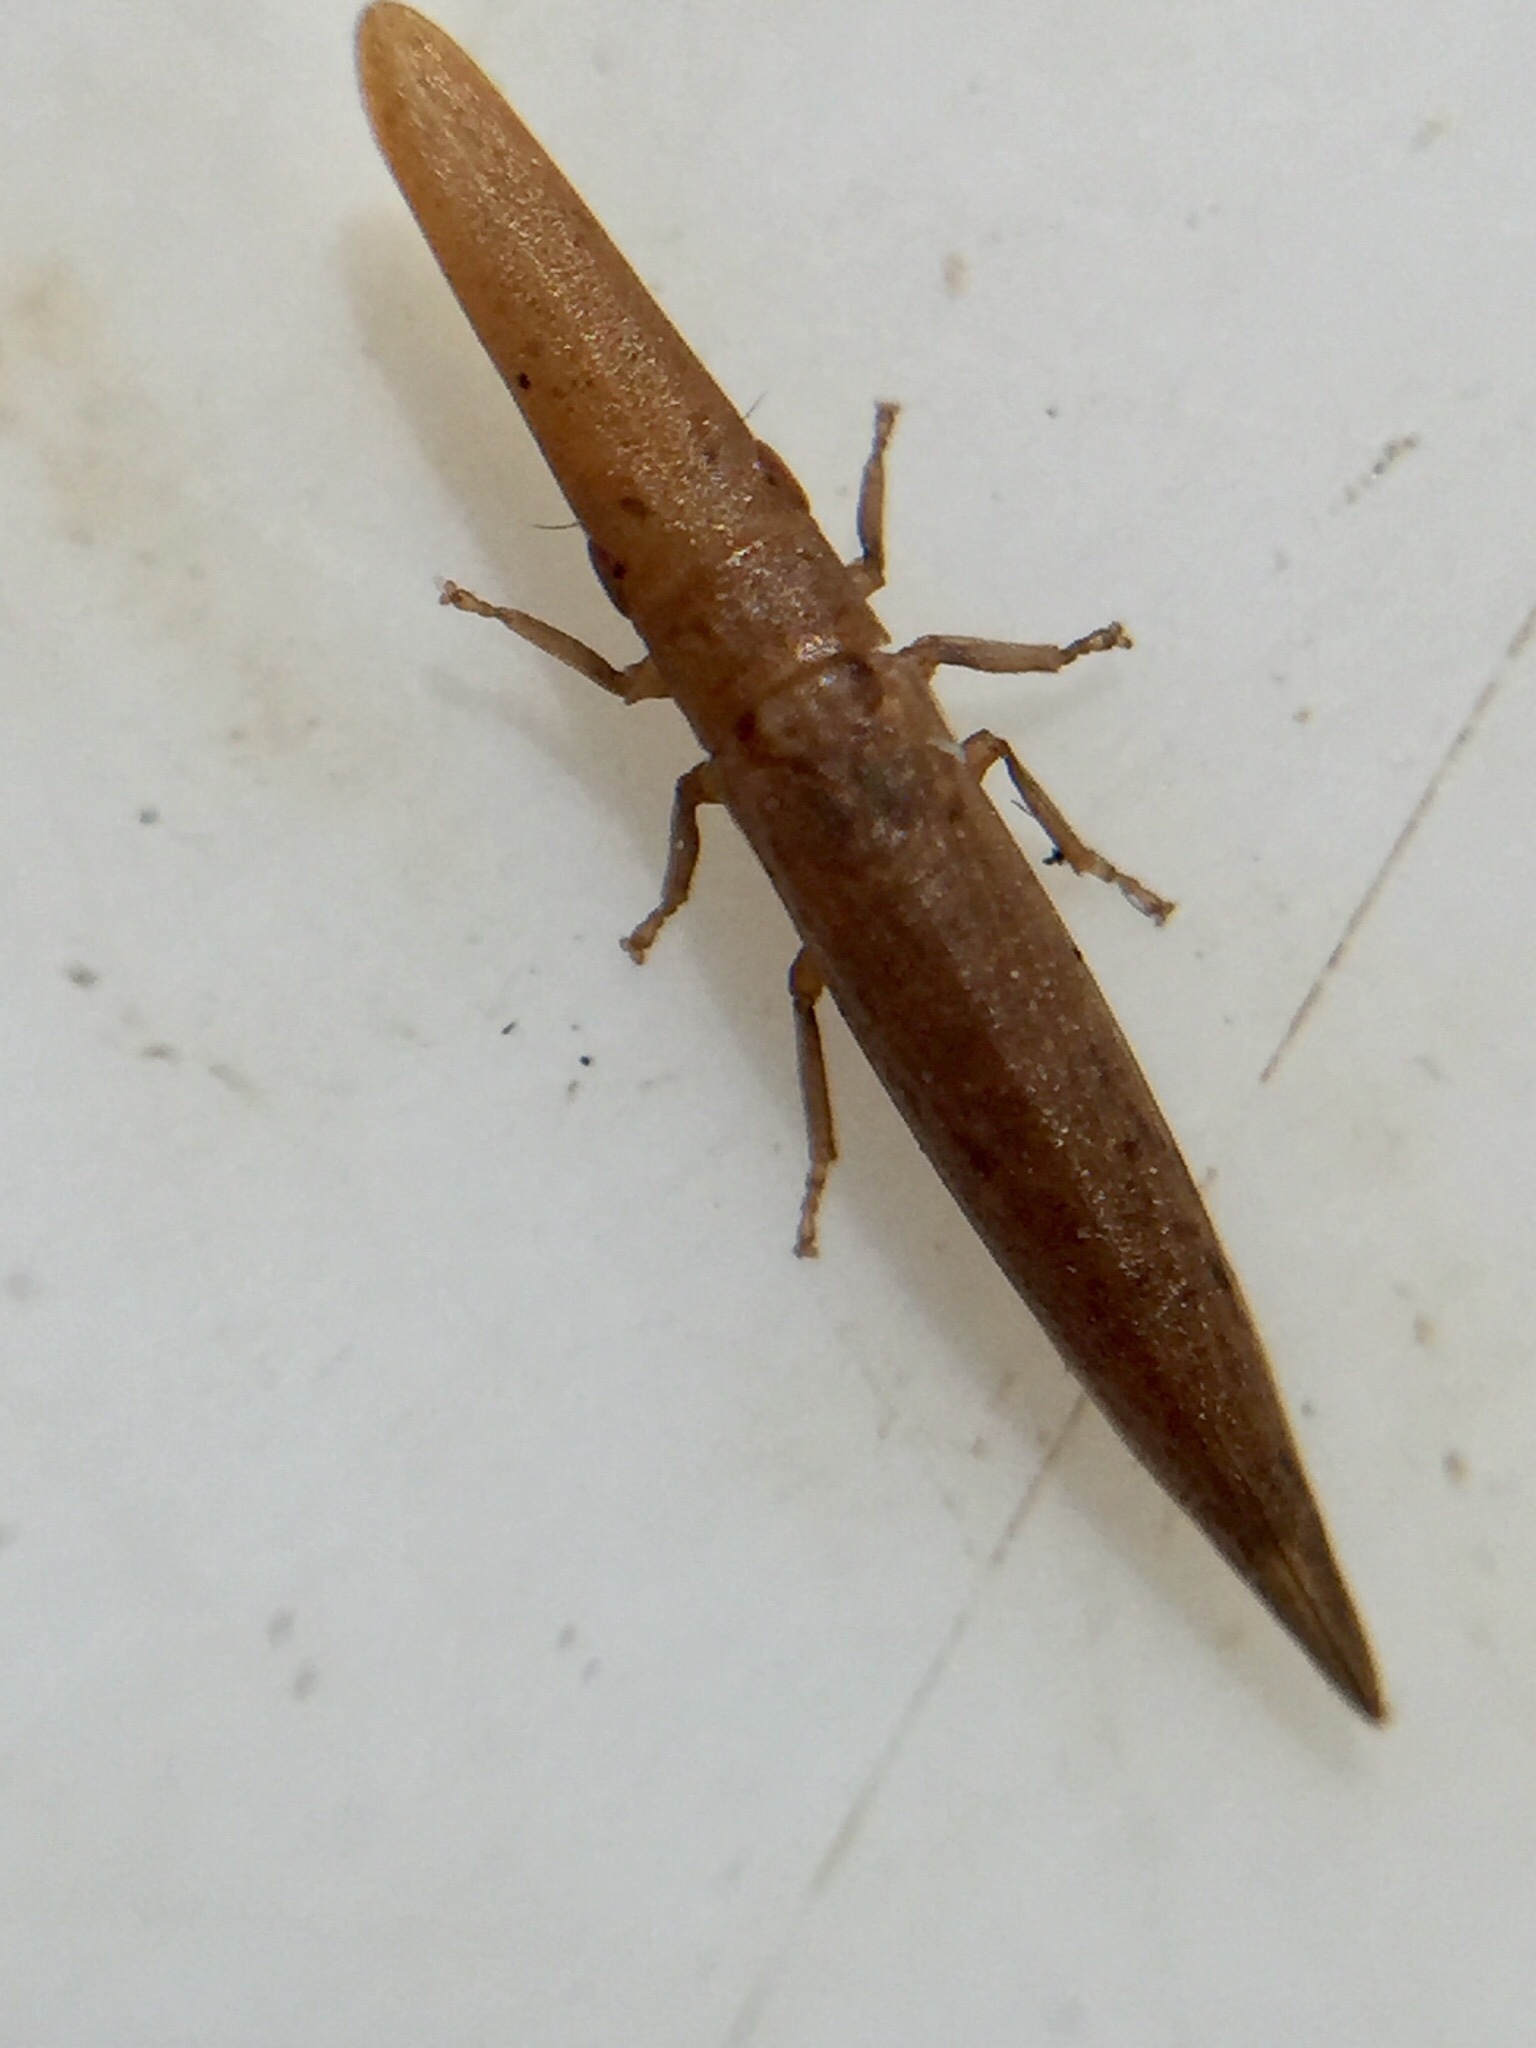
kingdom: Animalia
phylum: Arthropoda
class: Insecta
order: Hemiptera
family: Cicadellidae
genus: Paracephaleus
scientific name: Paracephaleus hudsoni
